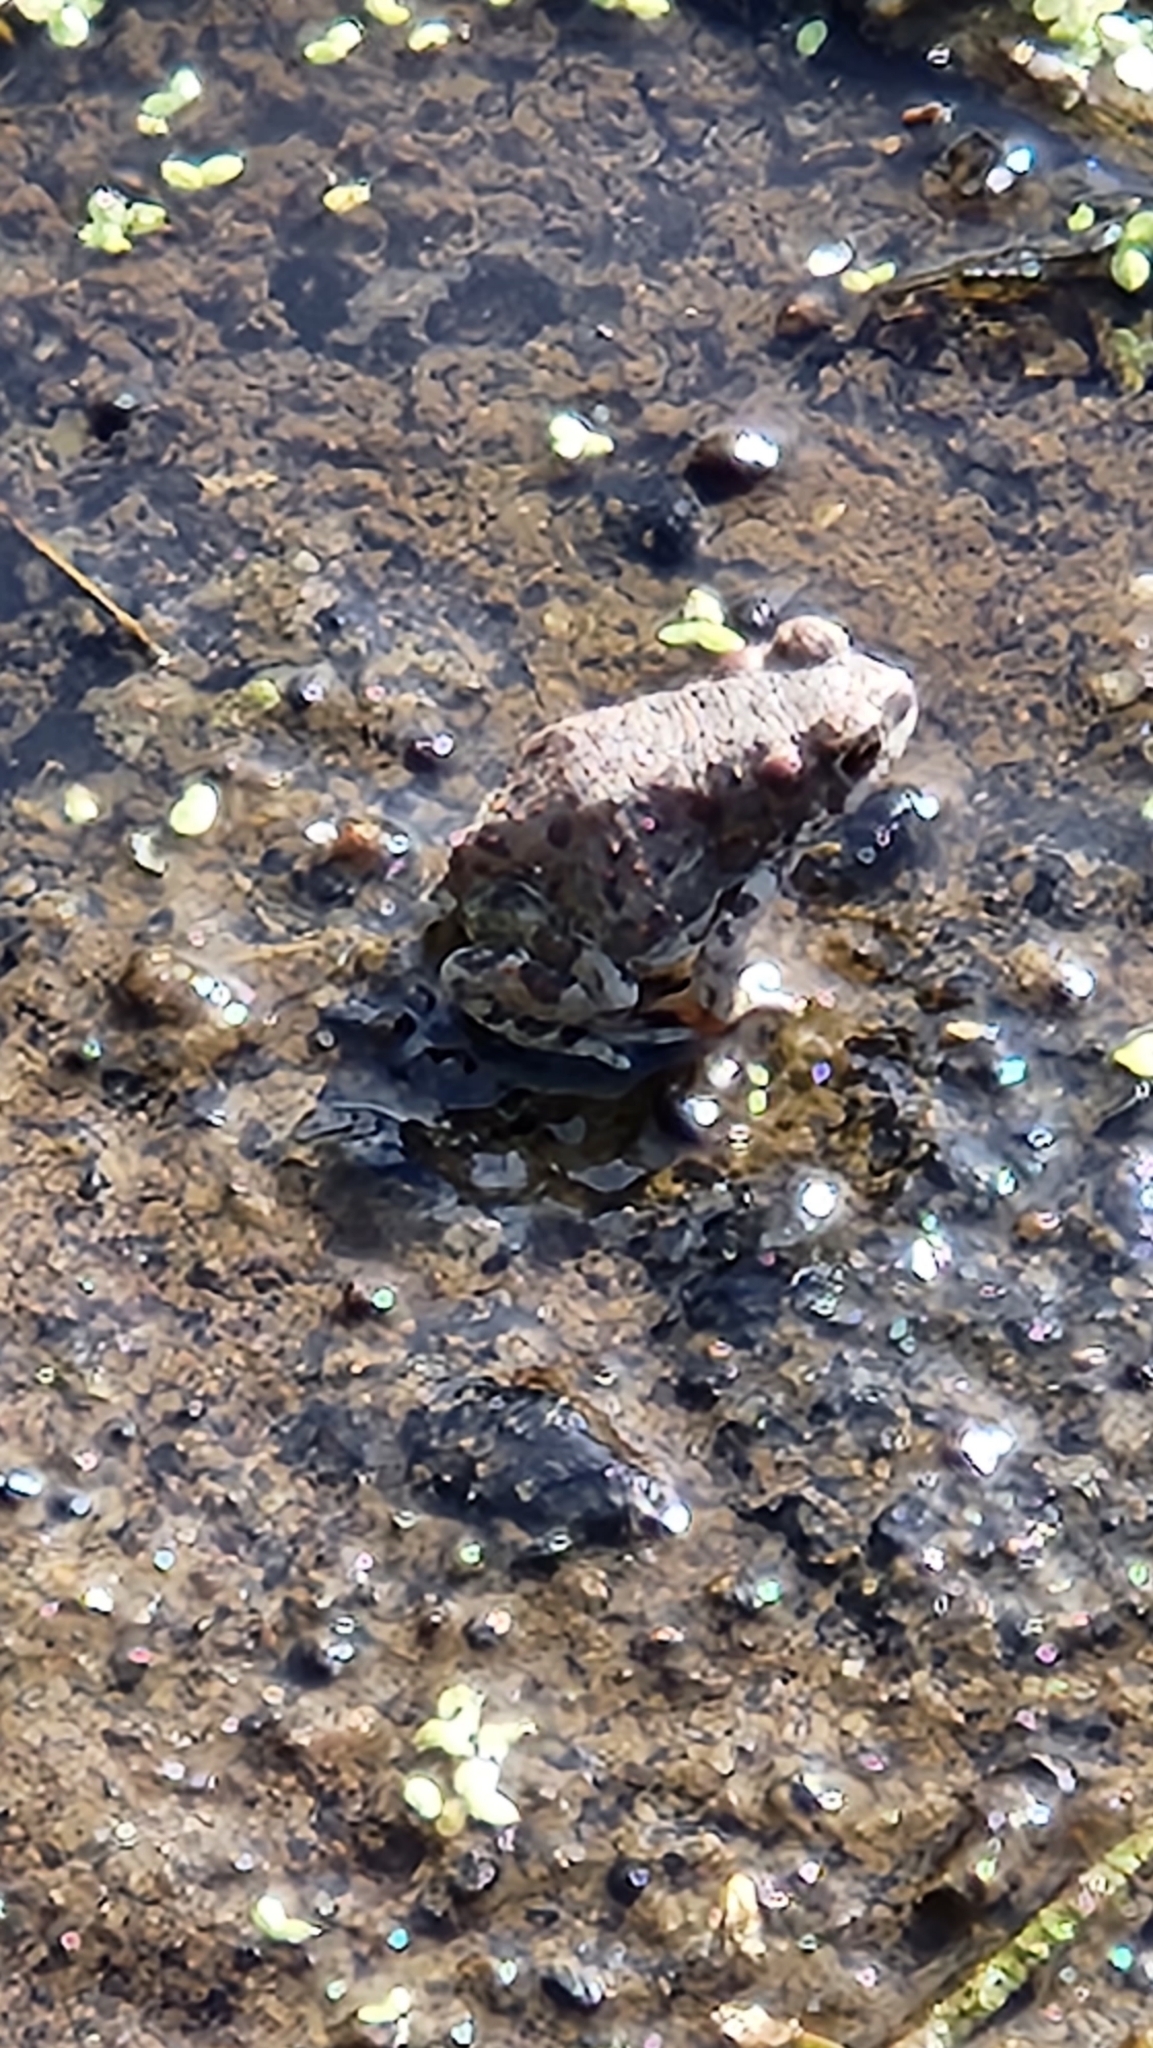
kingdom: Animalia
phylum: Chordata
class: Amphibia
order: Anura
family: Bufonidae
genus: Anaxyrus
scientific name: Anaxyrus punctatus
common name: Red-spotted toad
